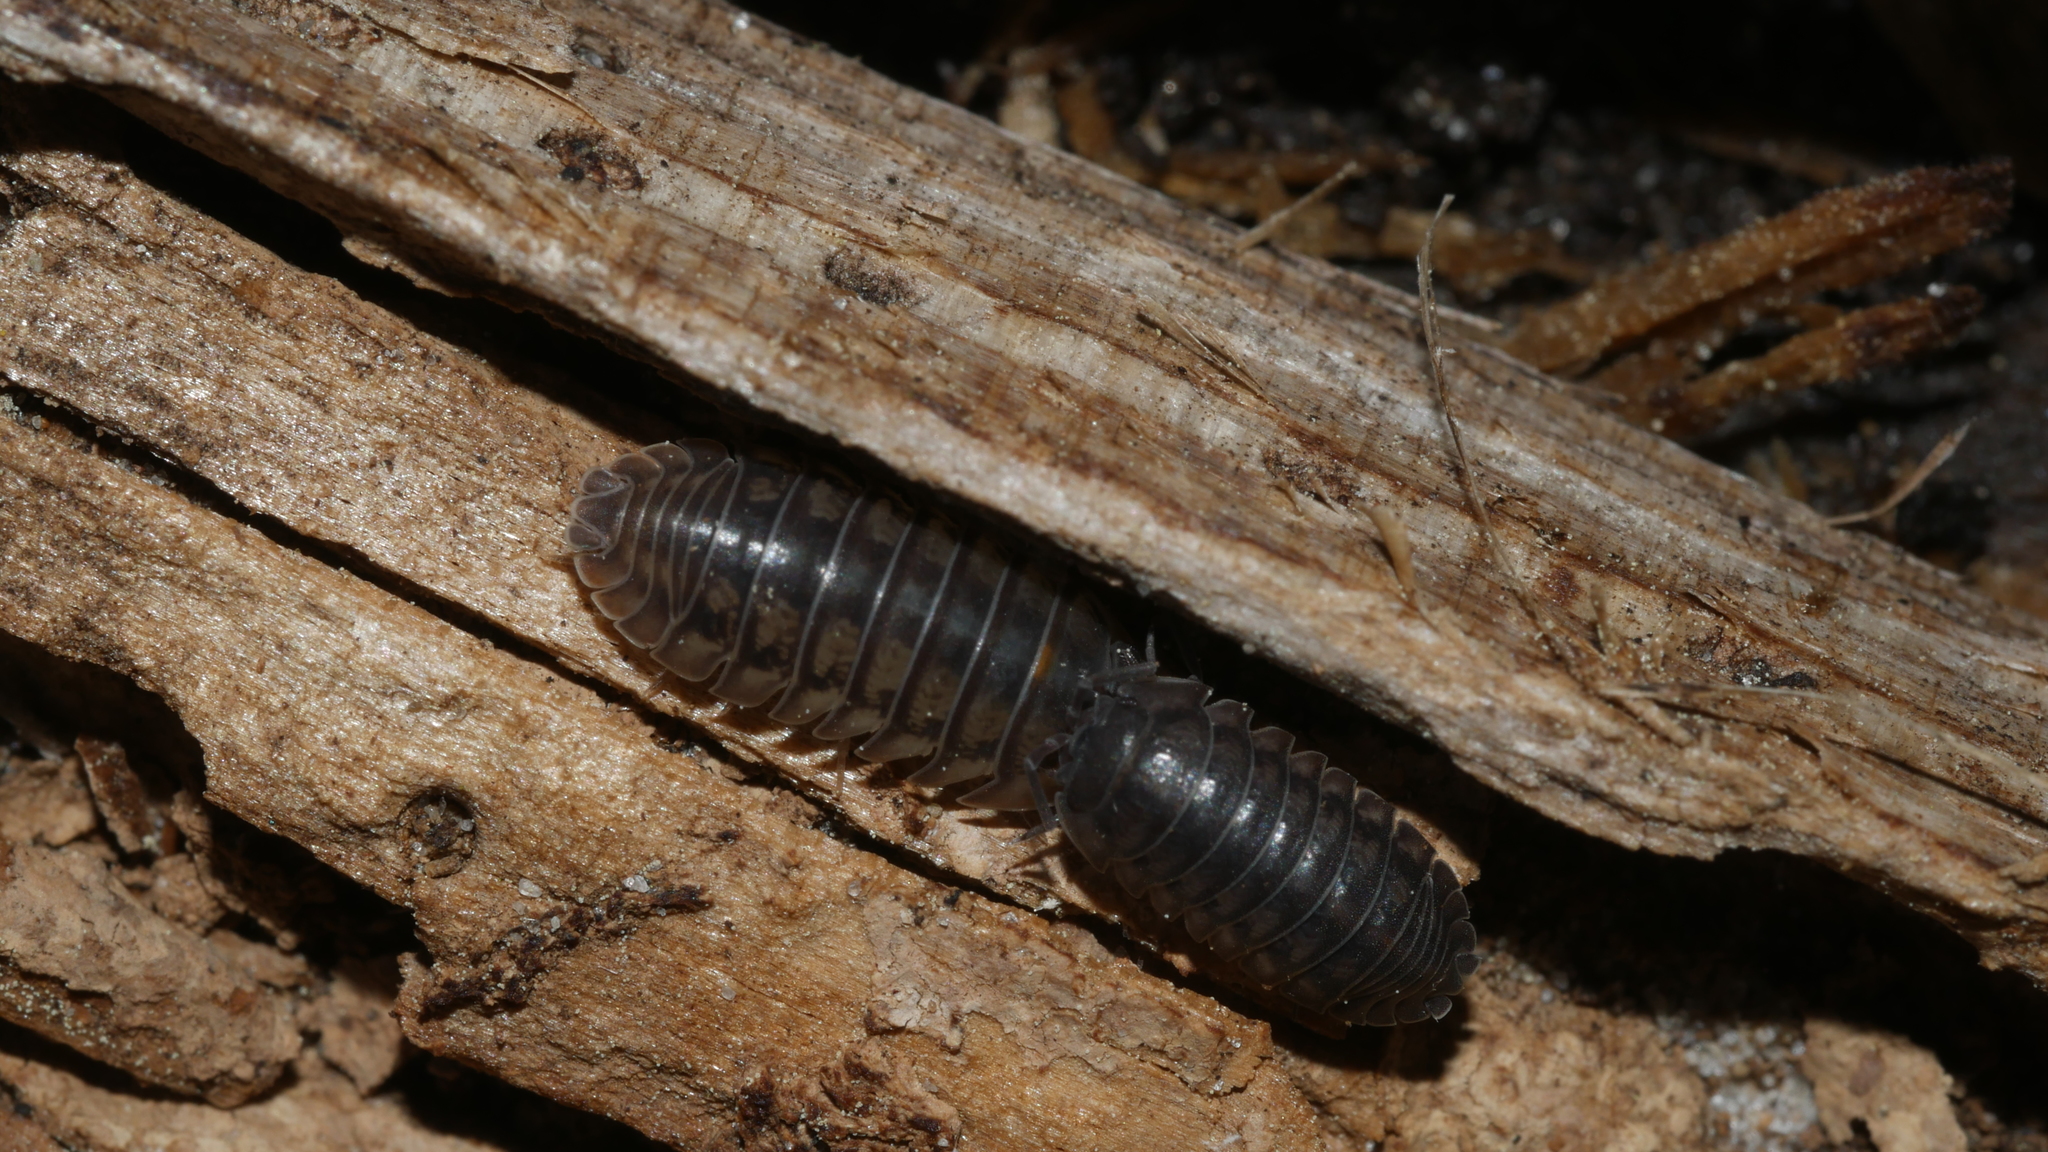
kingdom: Animalia
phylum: Arthropoda
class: Malacostraca
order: Isopoda
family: Armadillidiidae
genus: Armadillidium
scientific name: Armadillidium nasatum
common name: Isopod
